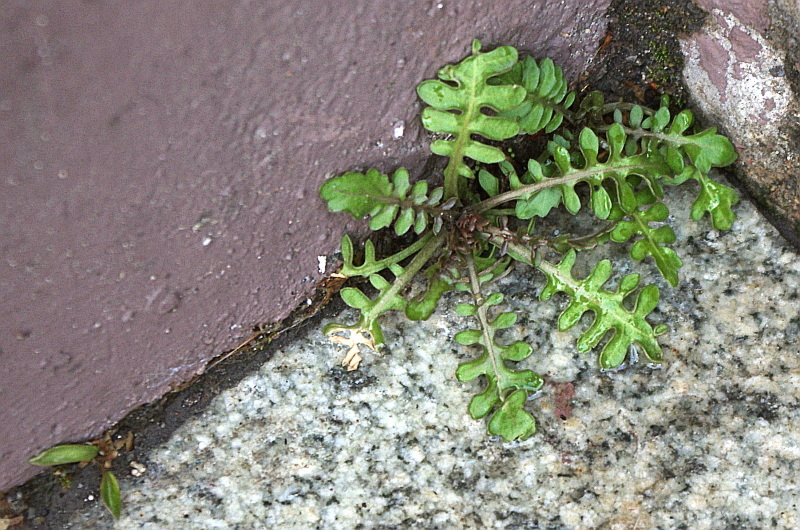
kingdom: Plantae
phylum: Tracheophyta
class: Magnoliopsida
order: Brassicales
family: Brassicaceae
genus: Rorippa
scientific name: Rorippa palustris
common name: Marsh yellow-cress
